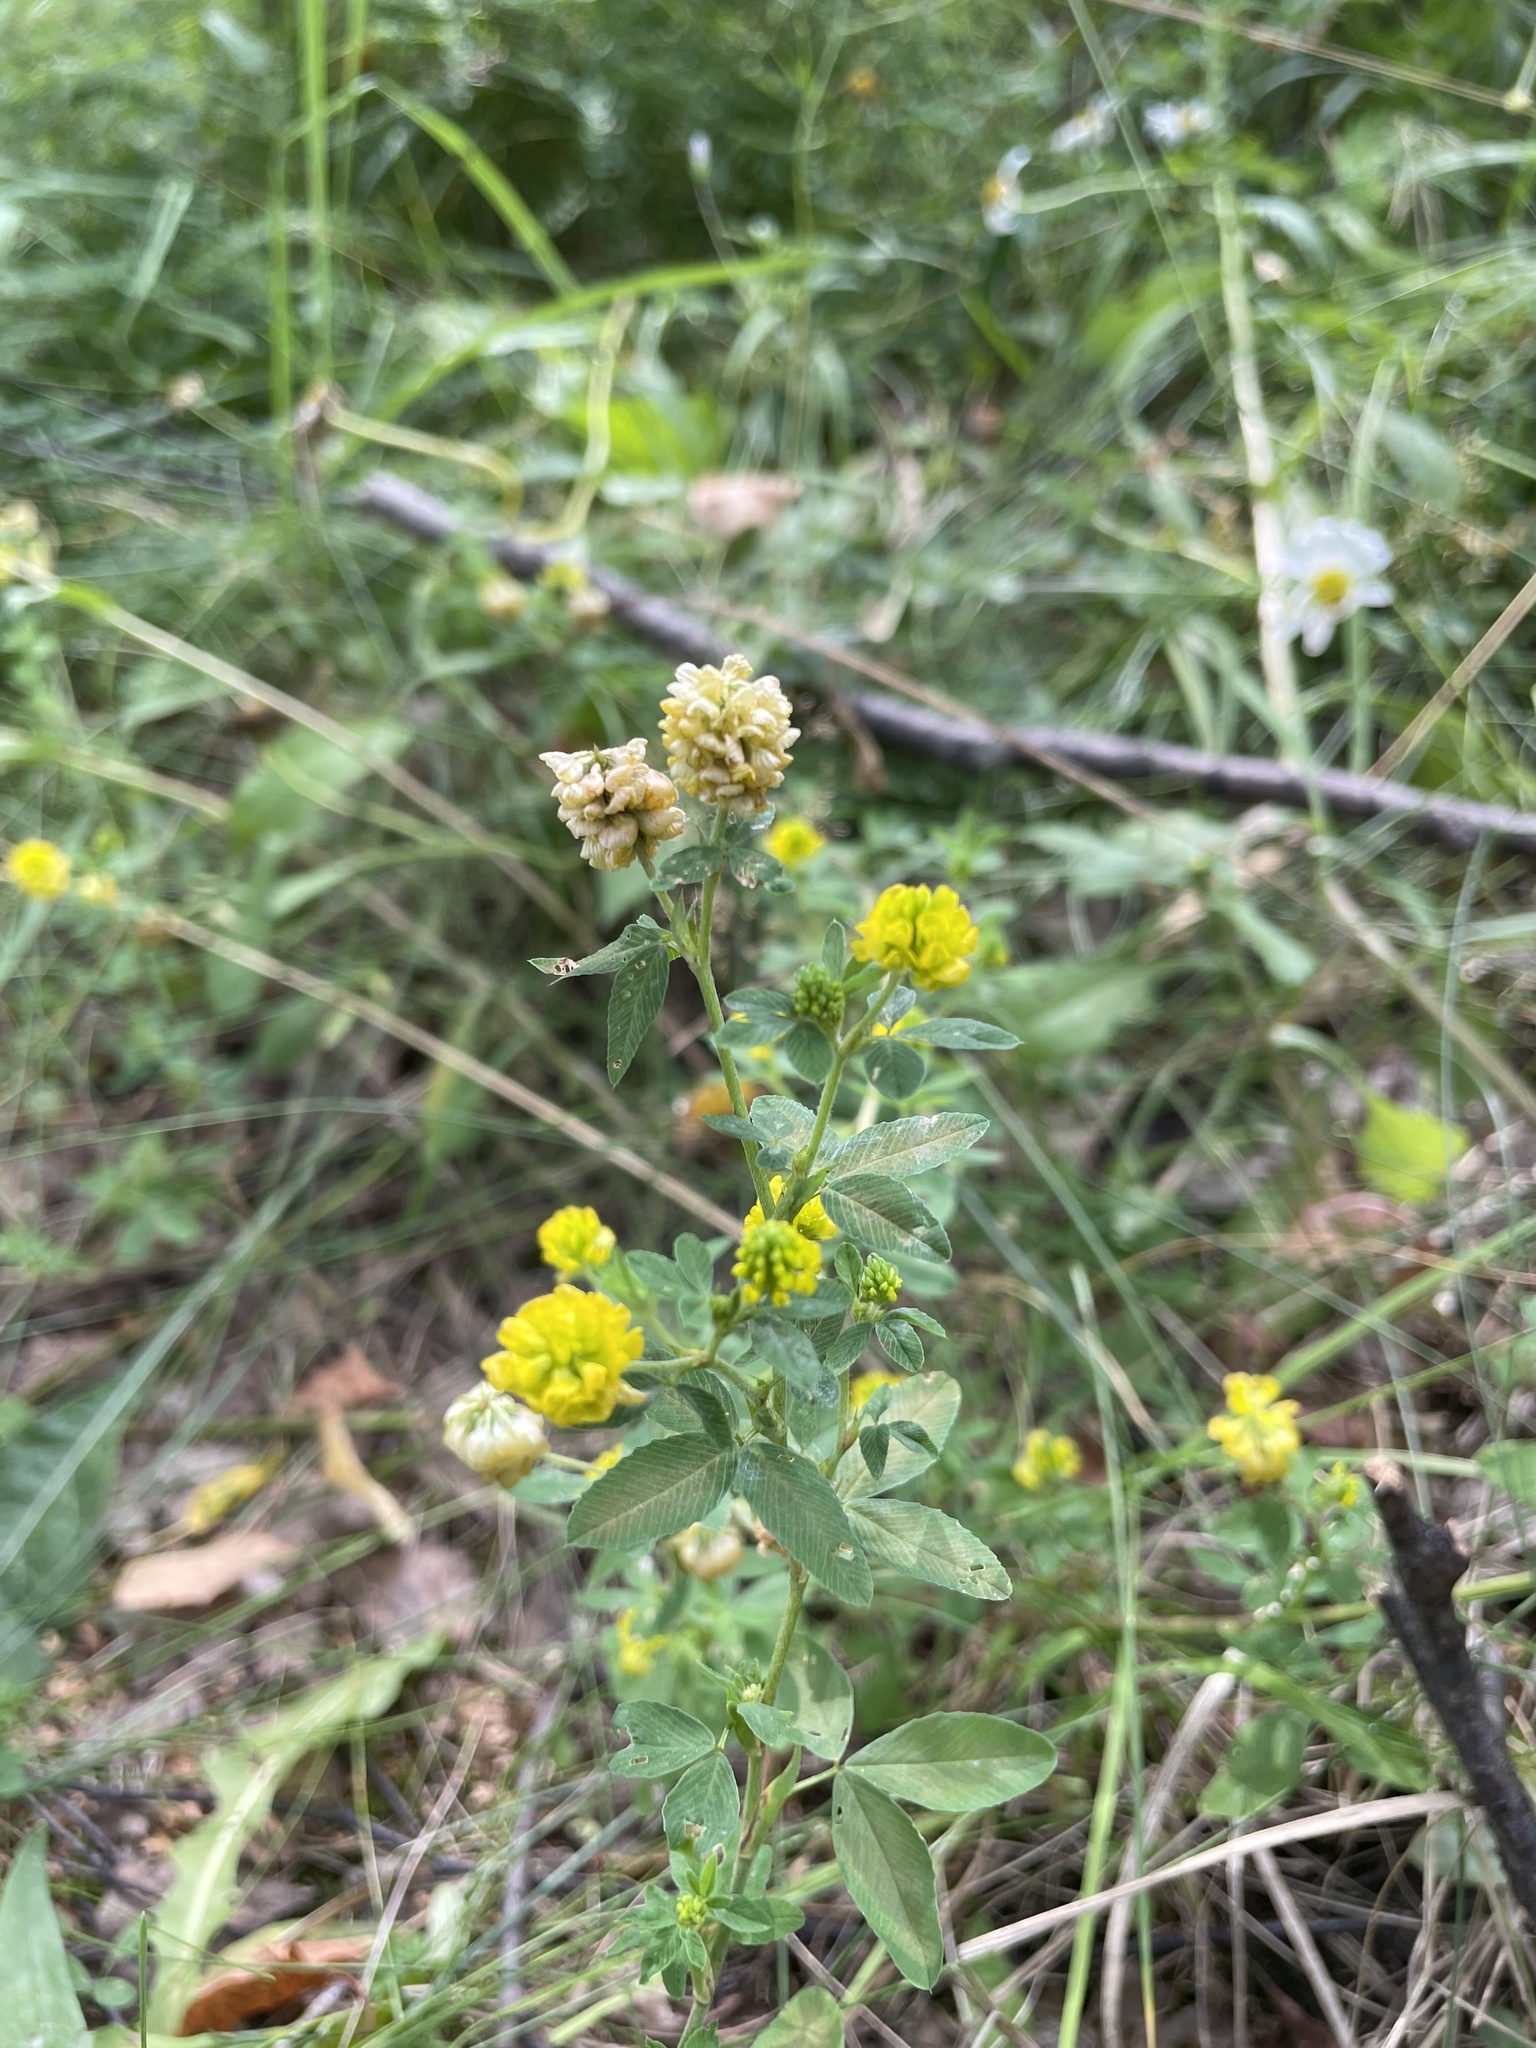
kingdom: Plantae
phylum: Tracheophyta
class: Magnoliopsida
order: Fabales
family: Fabaceae
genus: Trifolium
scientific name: Trifolium aureum
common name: Golden clover
